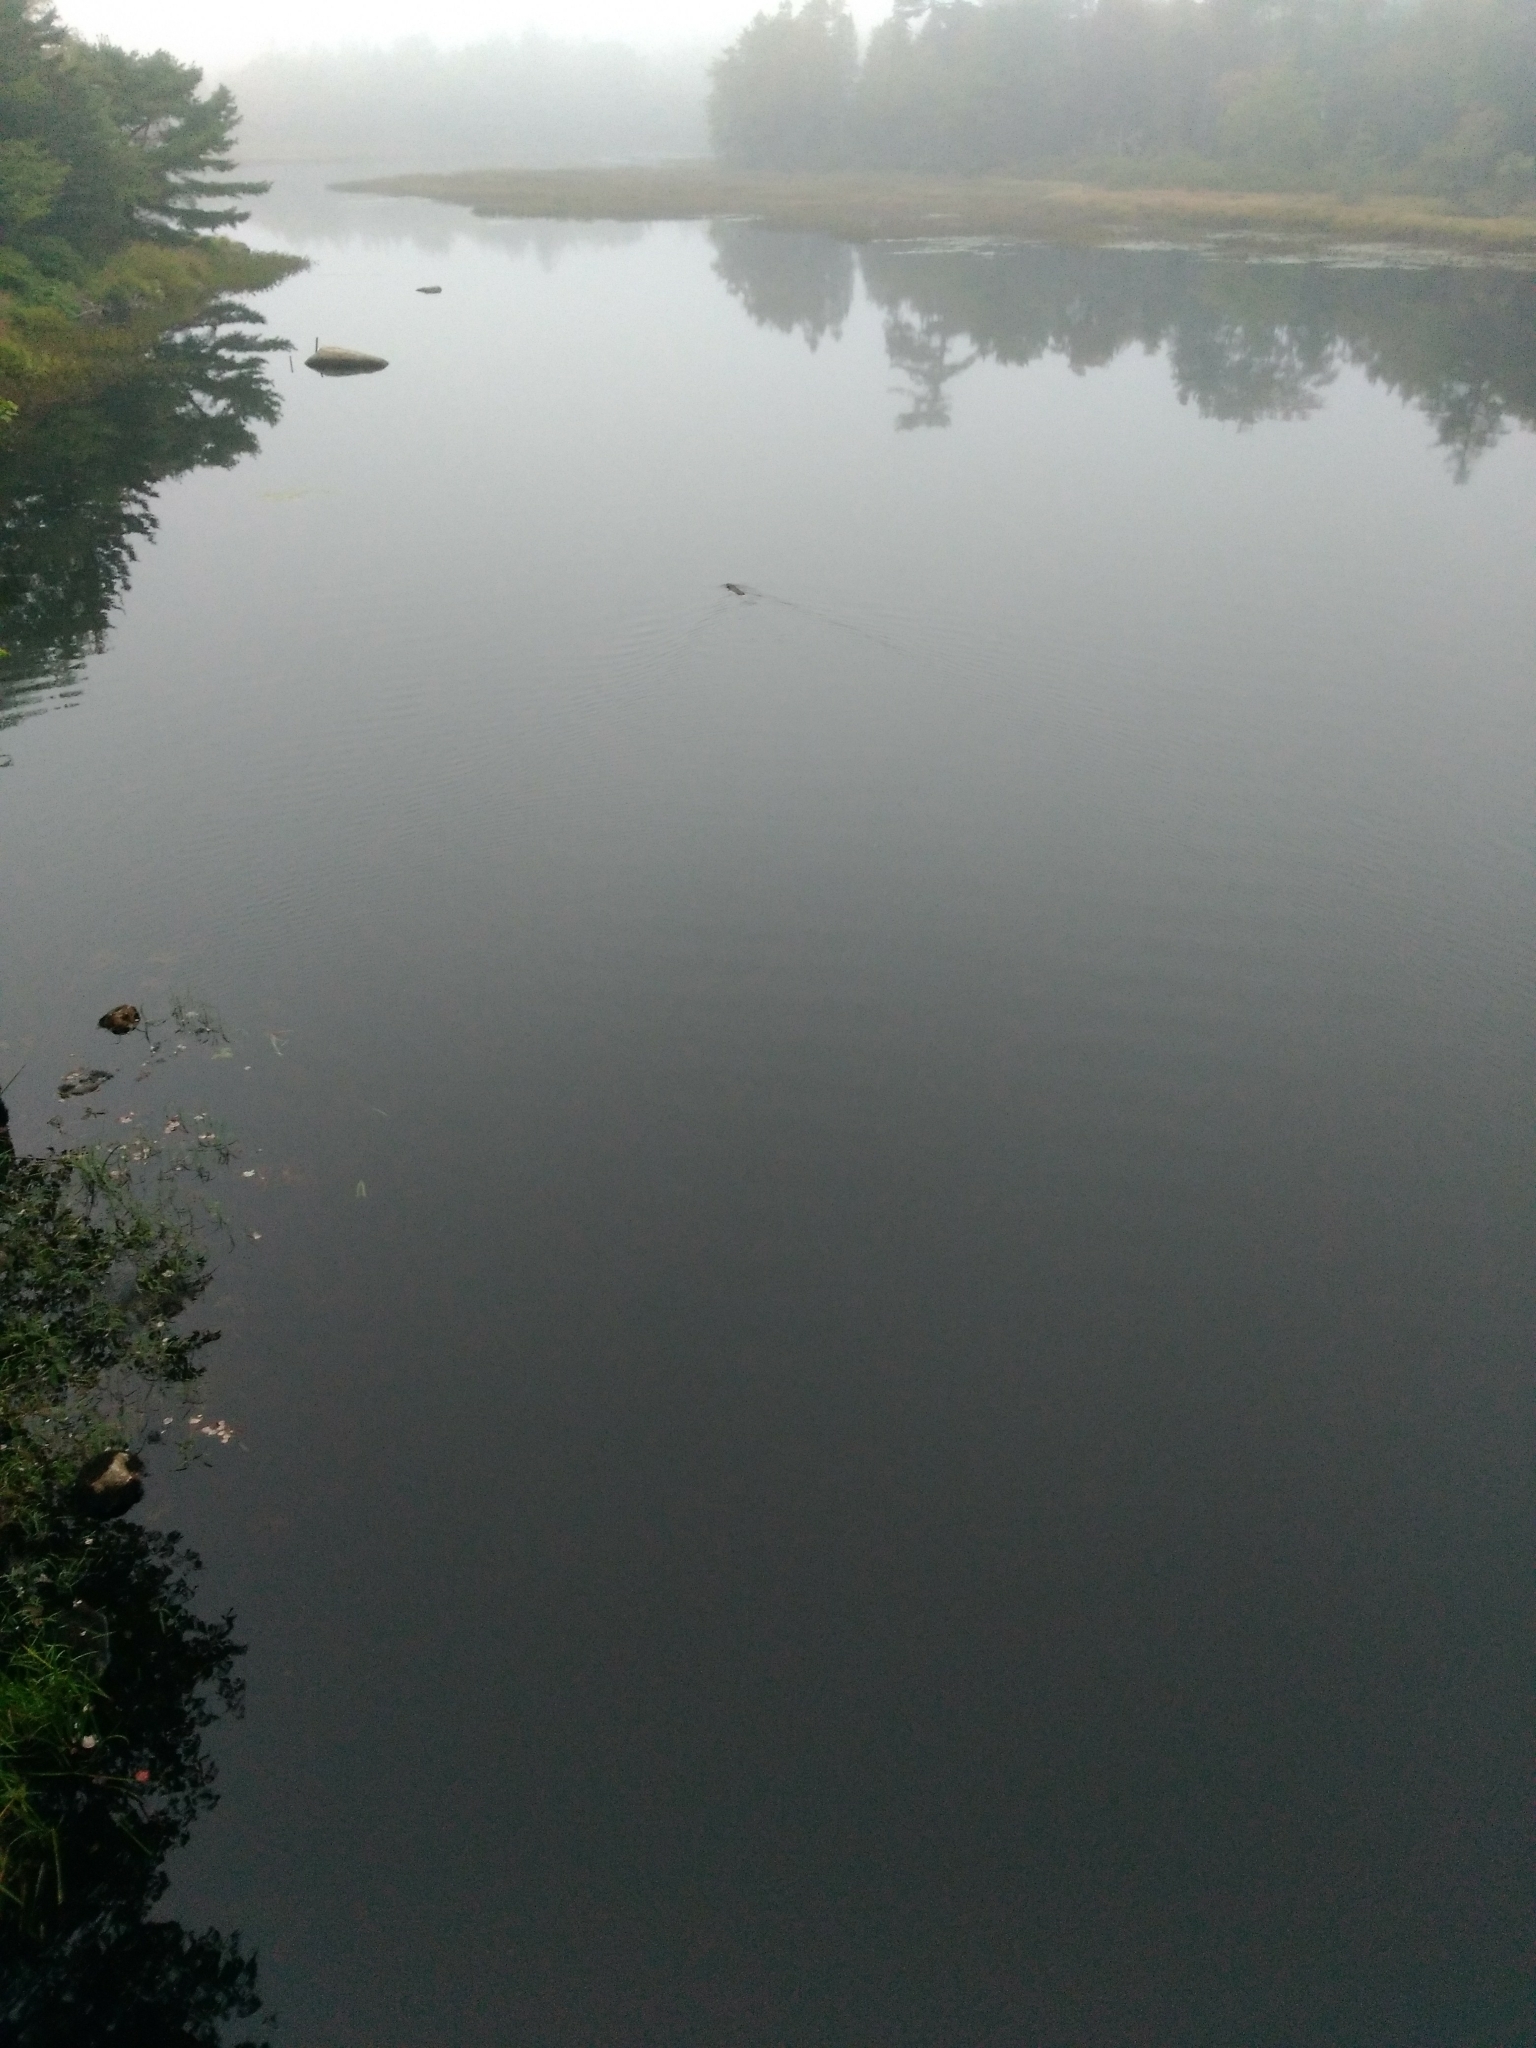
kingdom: Animalia
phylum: Chordata
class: Mammalia
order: Rodentia
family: Castoridae
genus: Castor
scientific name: Castor canadensis
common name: American beaver
